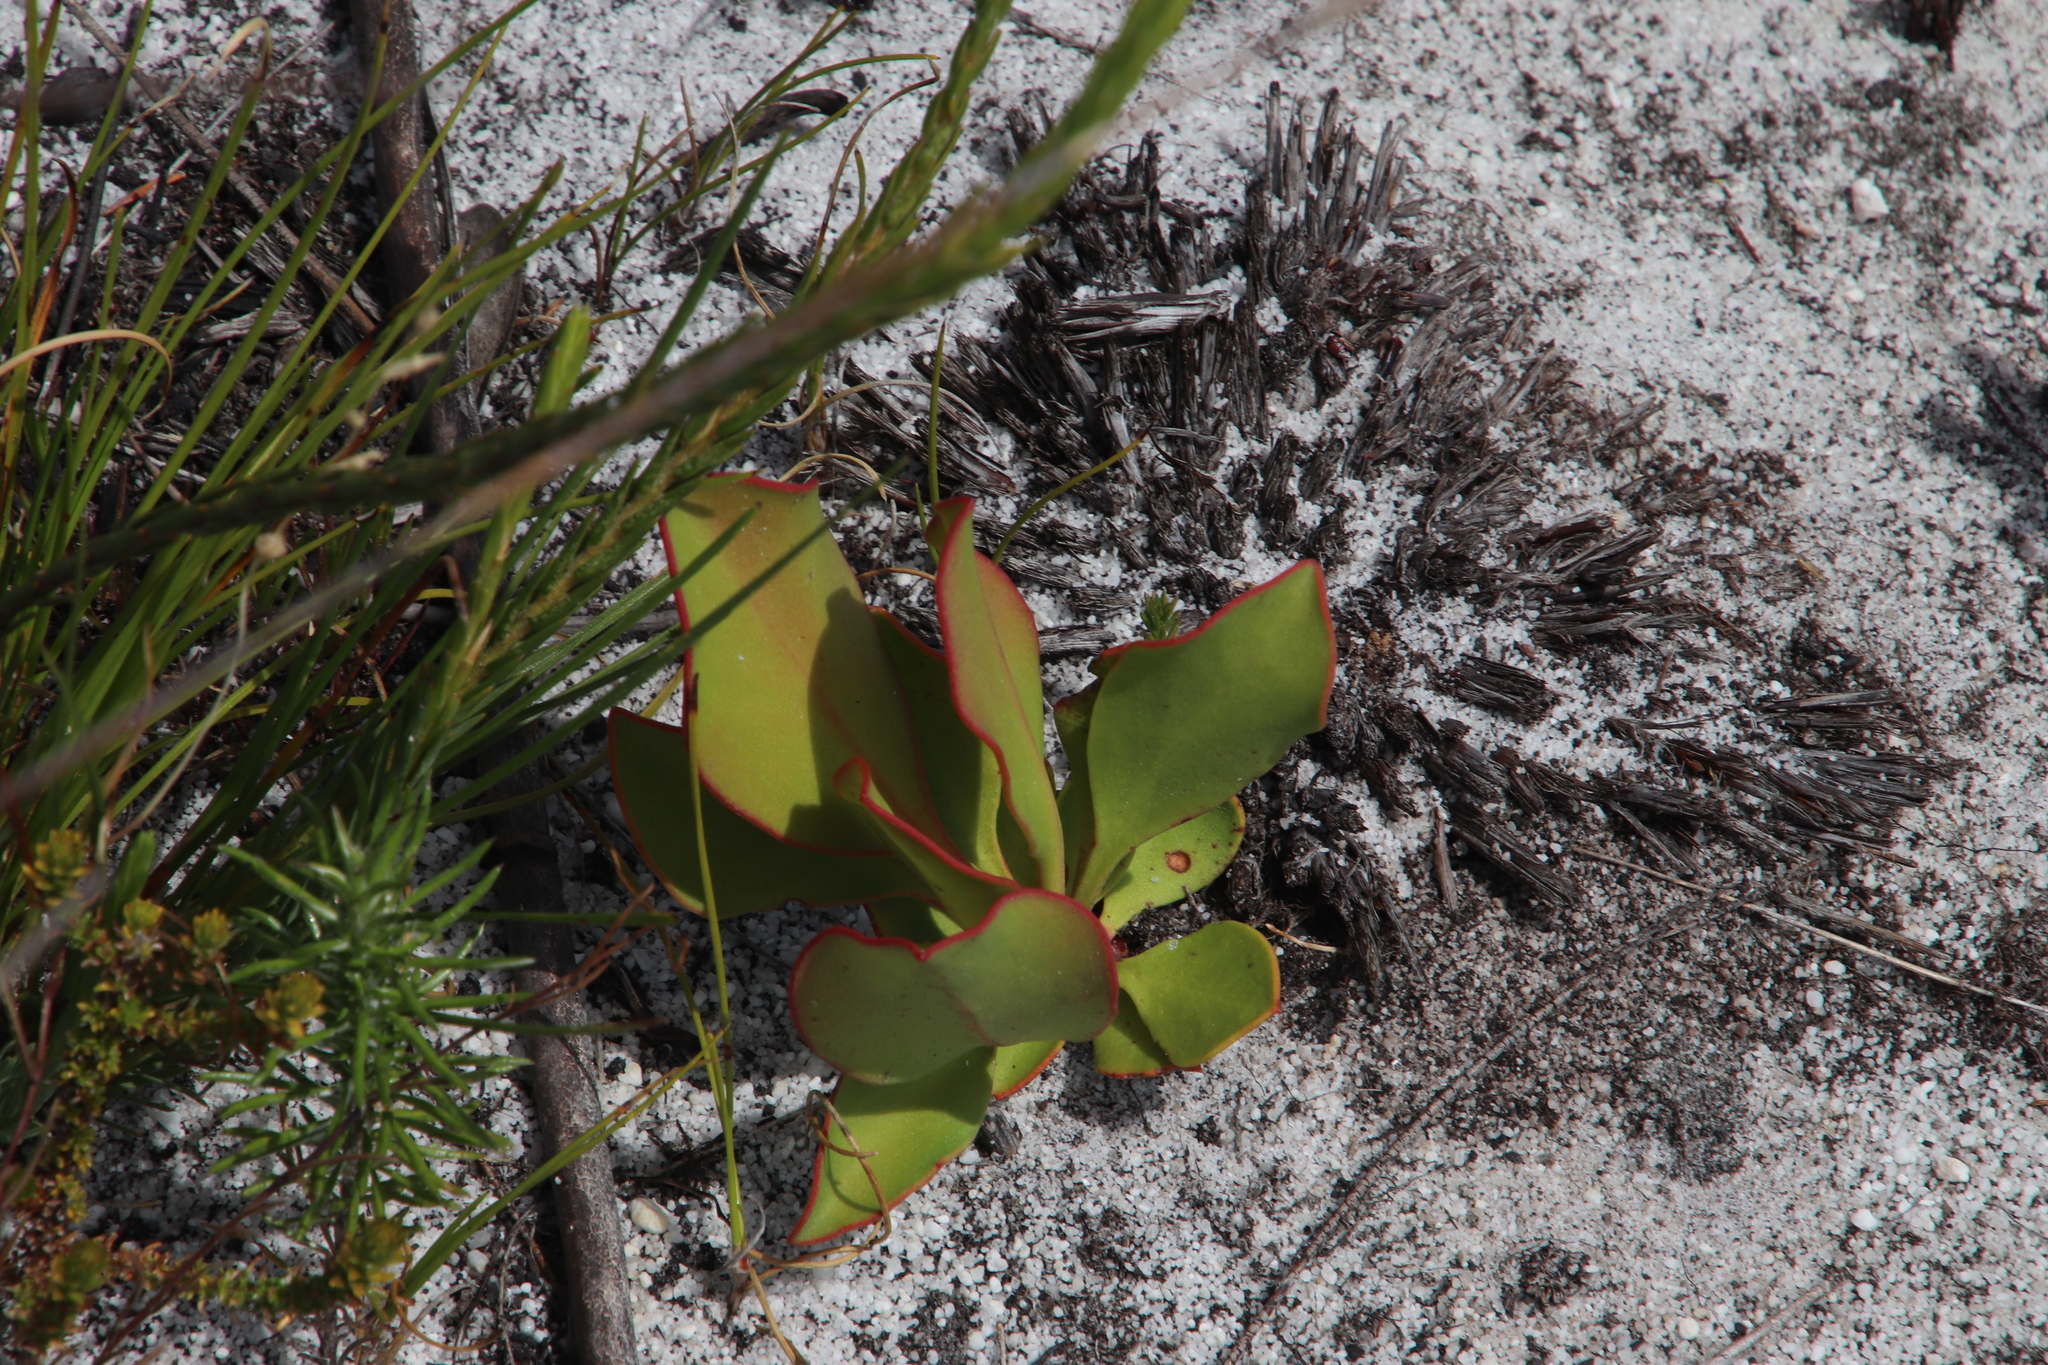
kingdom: Plantae
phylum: Tracheophyta
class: Magnoliopsida
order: Proteales
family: Proteaceae
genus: Protea
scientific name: Protea cynaroides
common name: King protea
